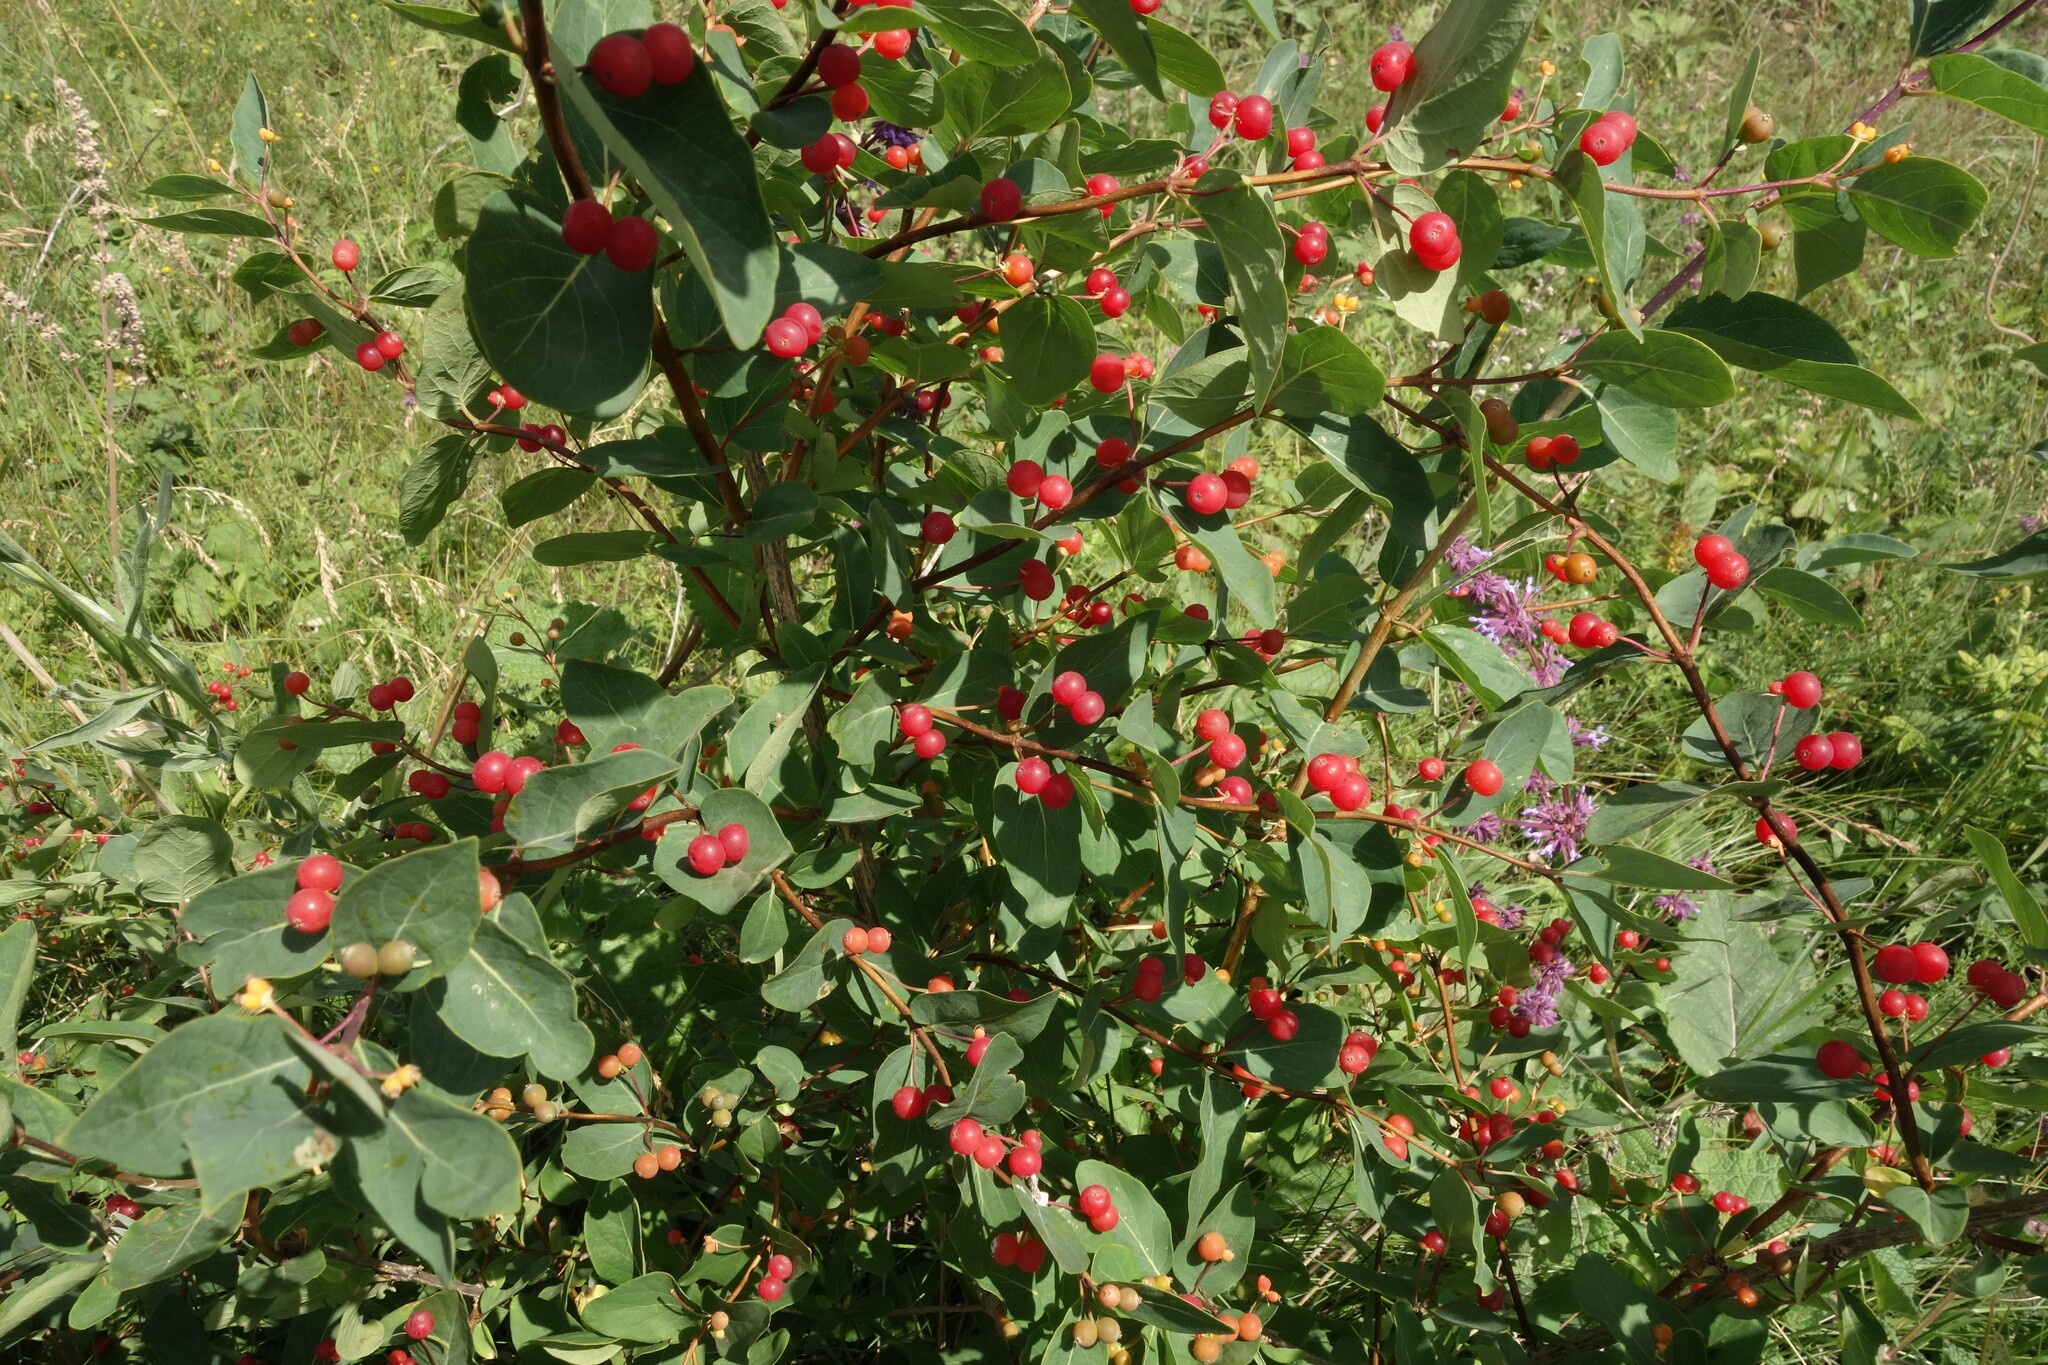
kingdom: Plantae
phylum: Tracheophyta
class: Magnoliopsida
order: Dipsacales
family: Caprifoliaceae
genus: Lonicera
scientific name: Lonicera tatarica
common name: Tatarian honeysuckle
